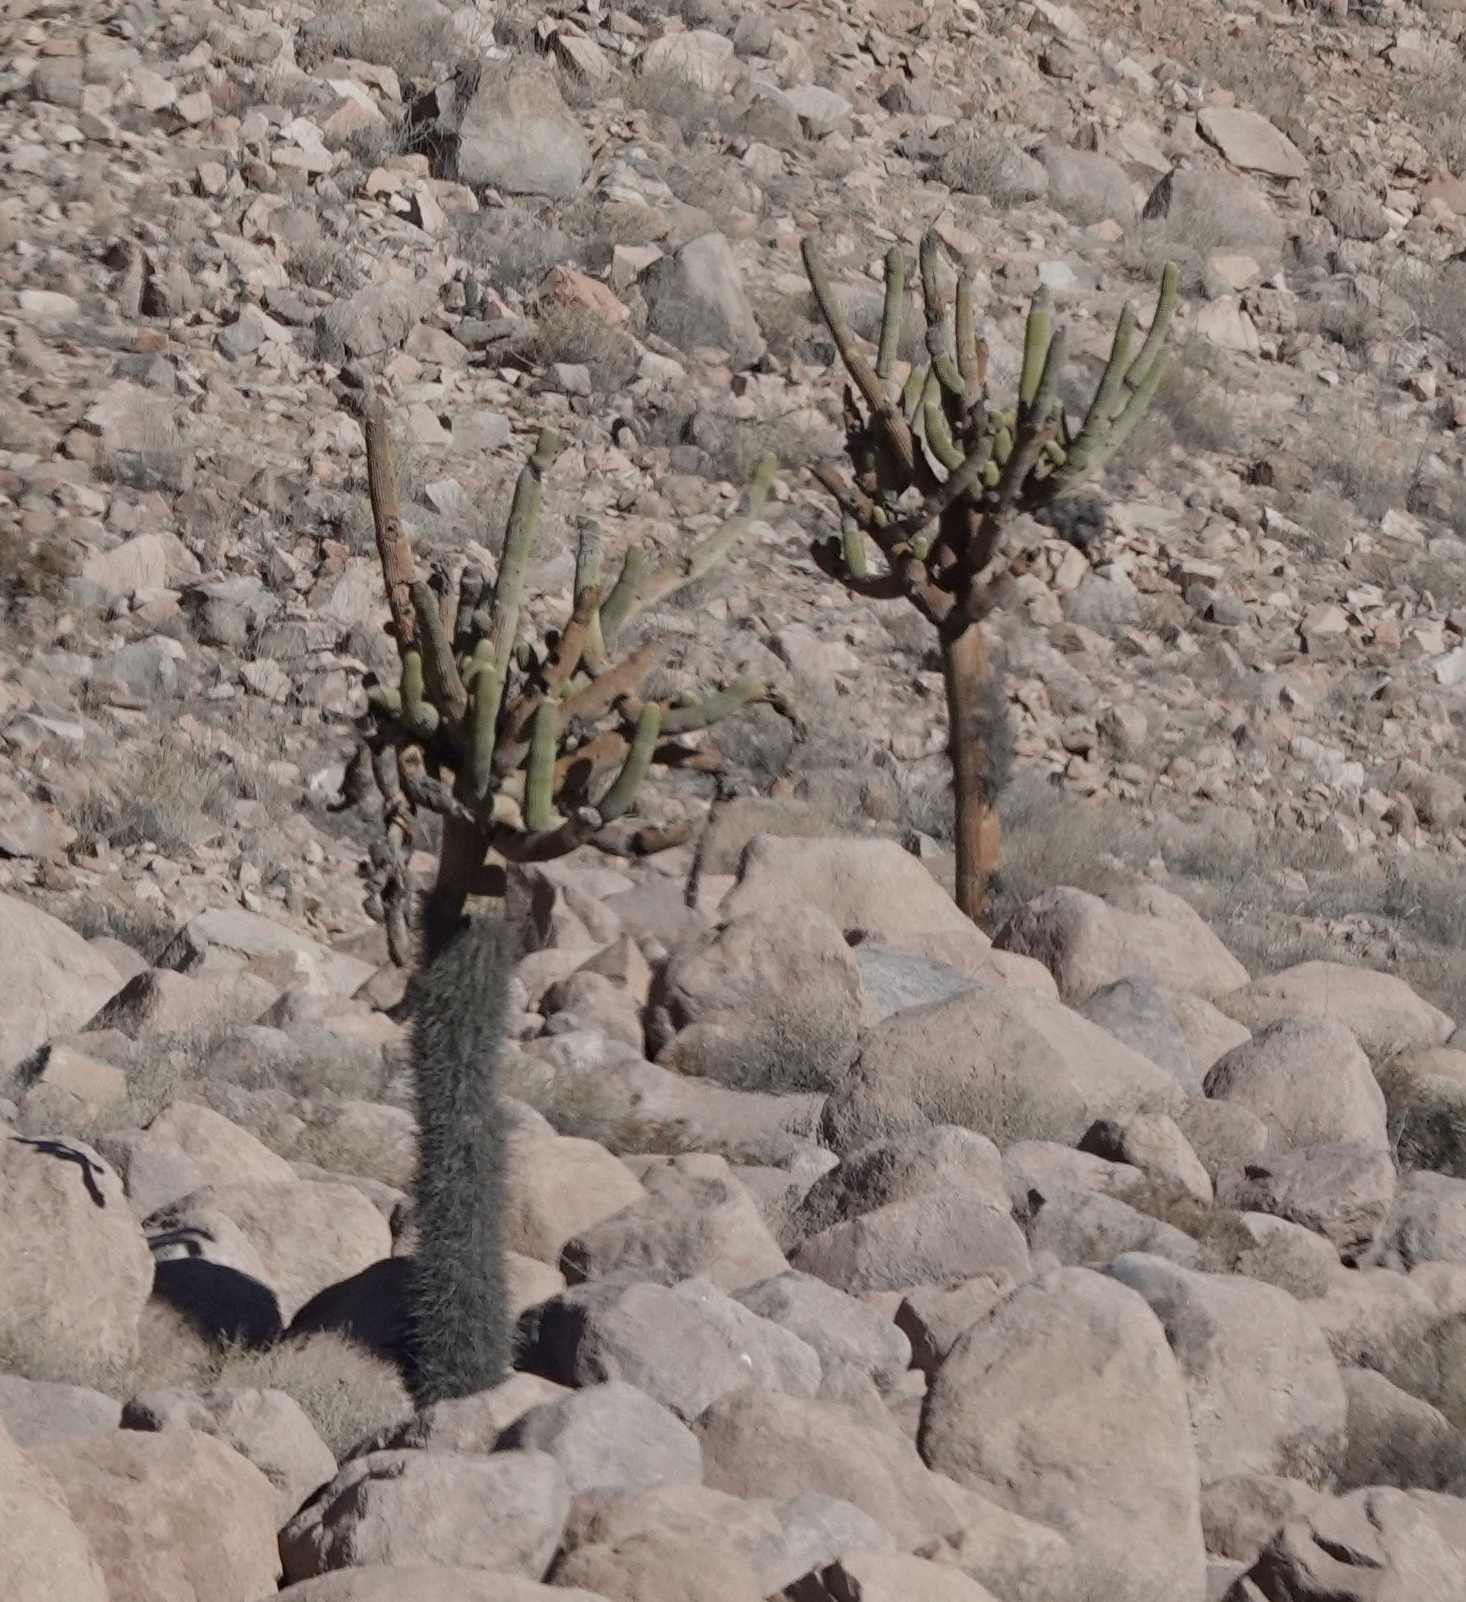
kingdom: Plantae
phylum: Tracheophyta
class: Magnoliopsida
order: Caryophyllales
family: Cactaceae
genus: Browningia
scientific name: Browningia candelaris
